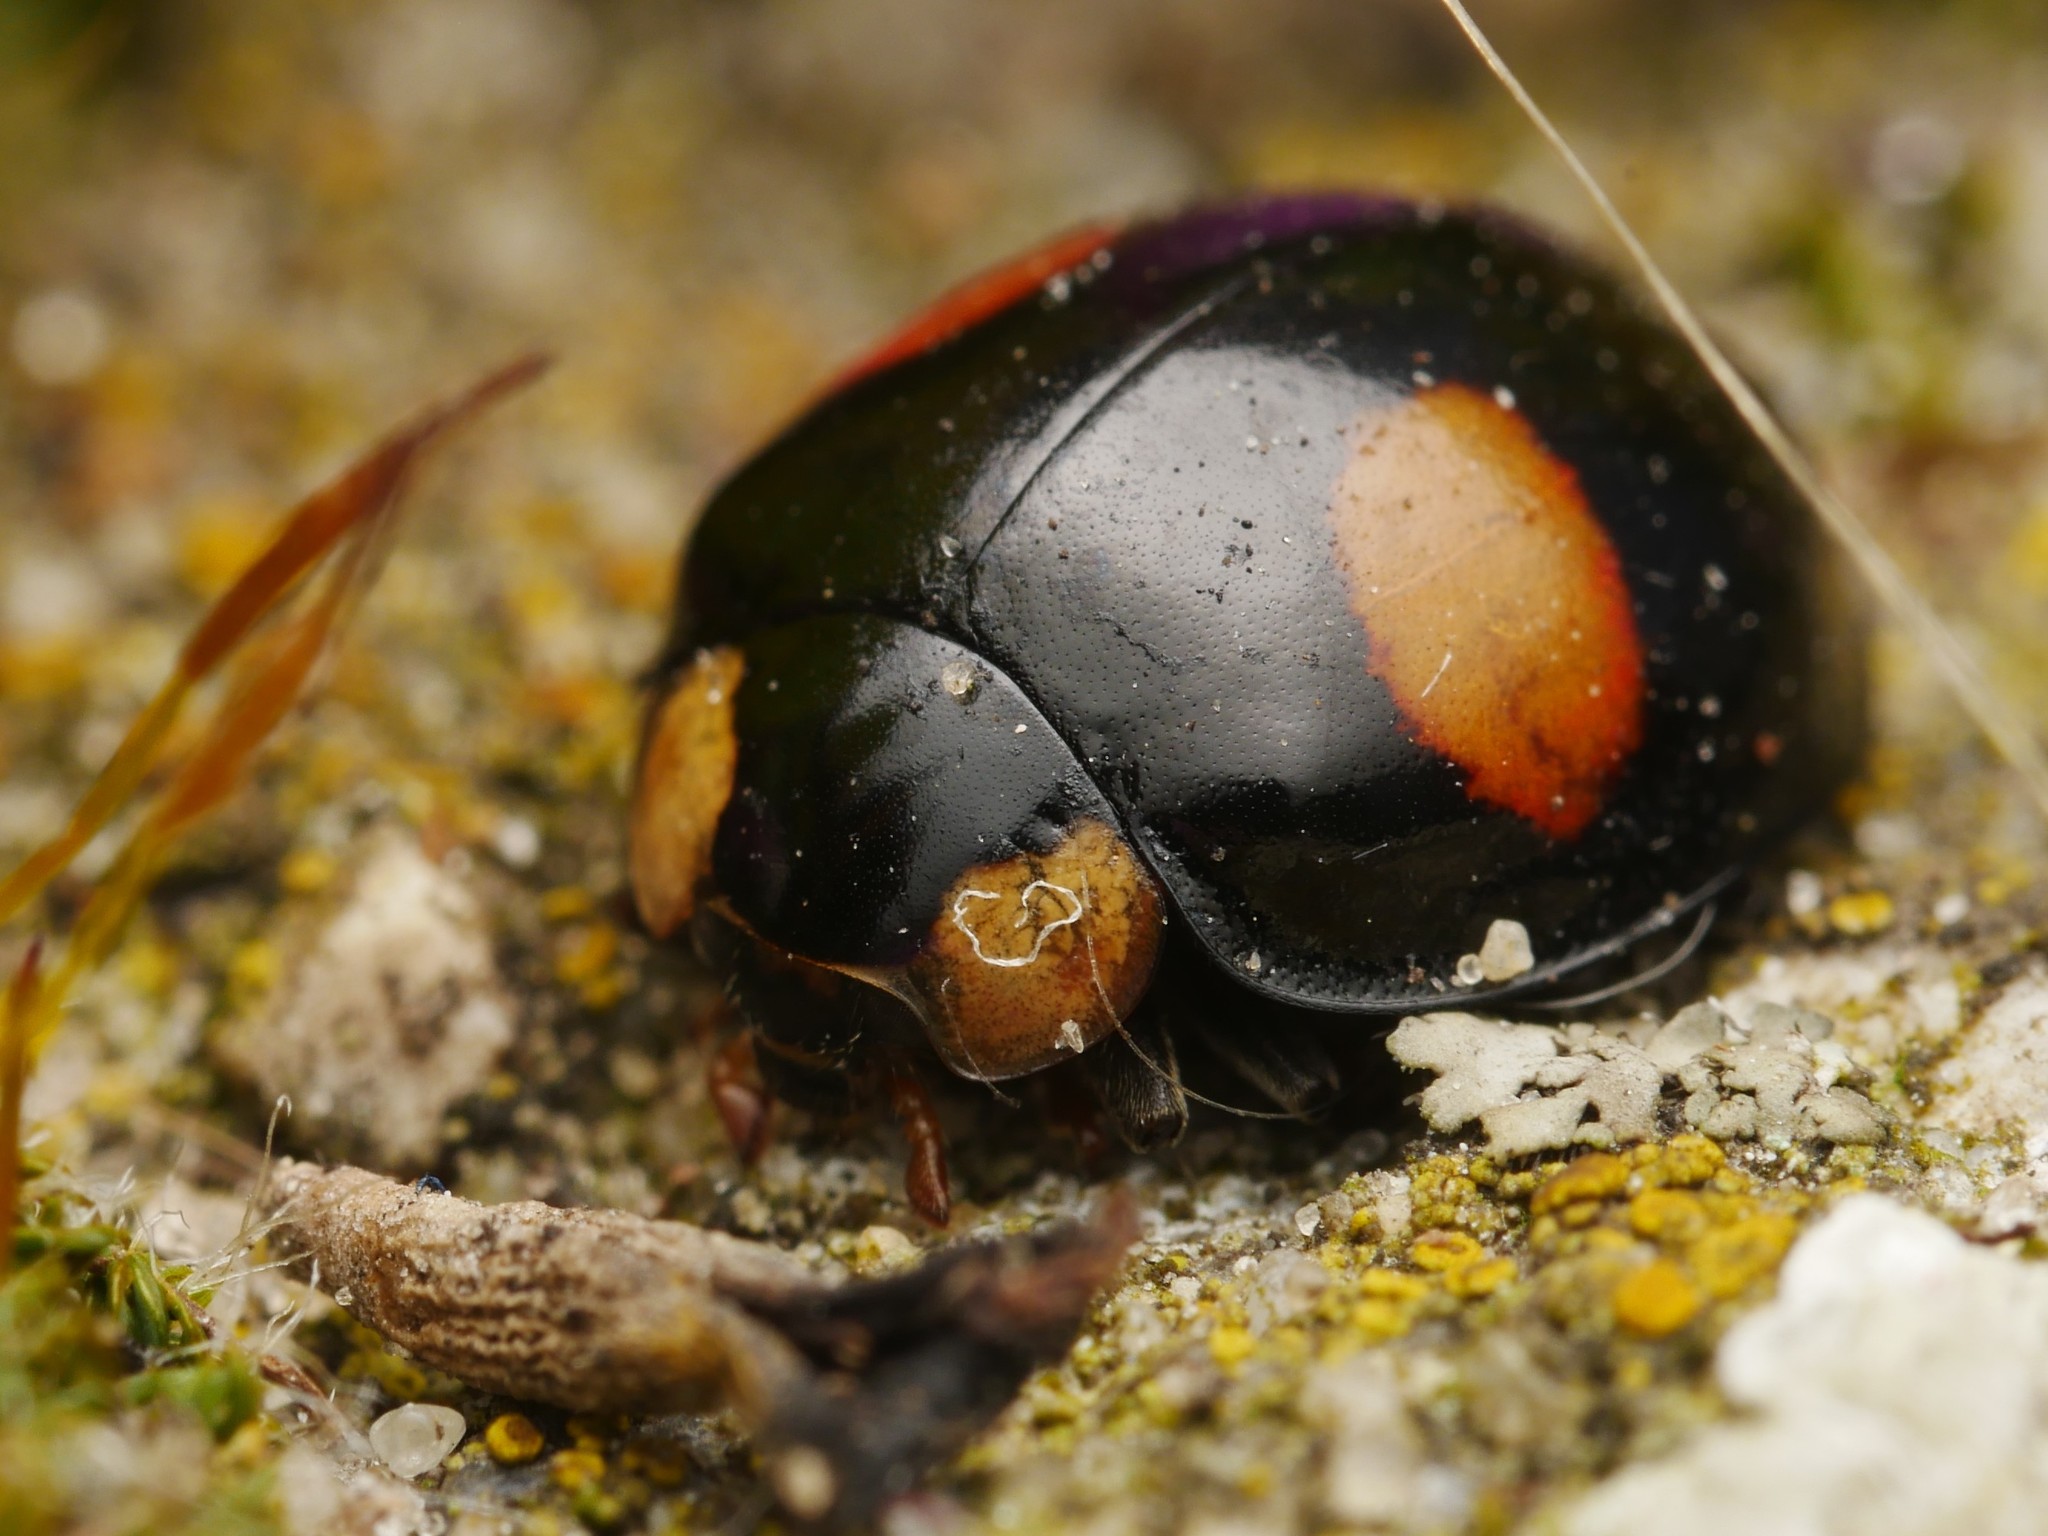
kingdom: Animalia
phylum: Arthropoda
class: Insecta
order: Coleoptera
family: Coccinellidae
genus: Harmonia
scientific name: Harmonia axyridis
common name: Harlequin ladybird
